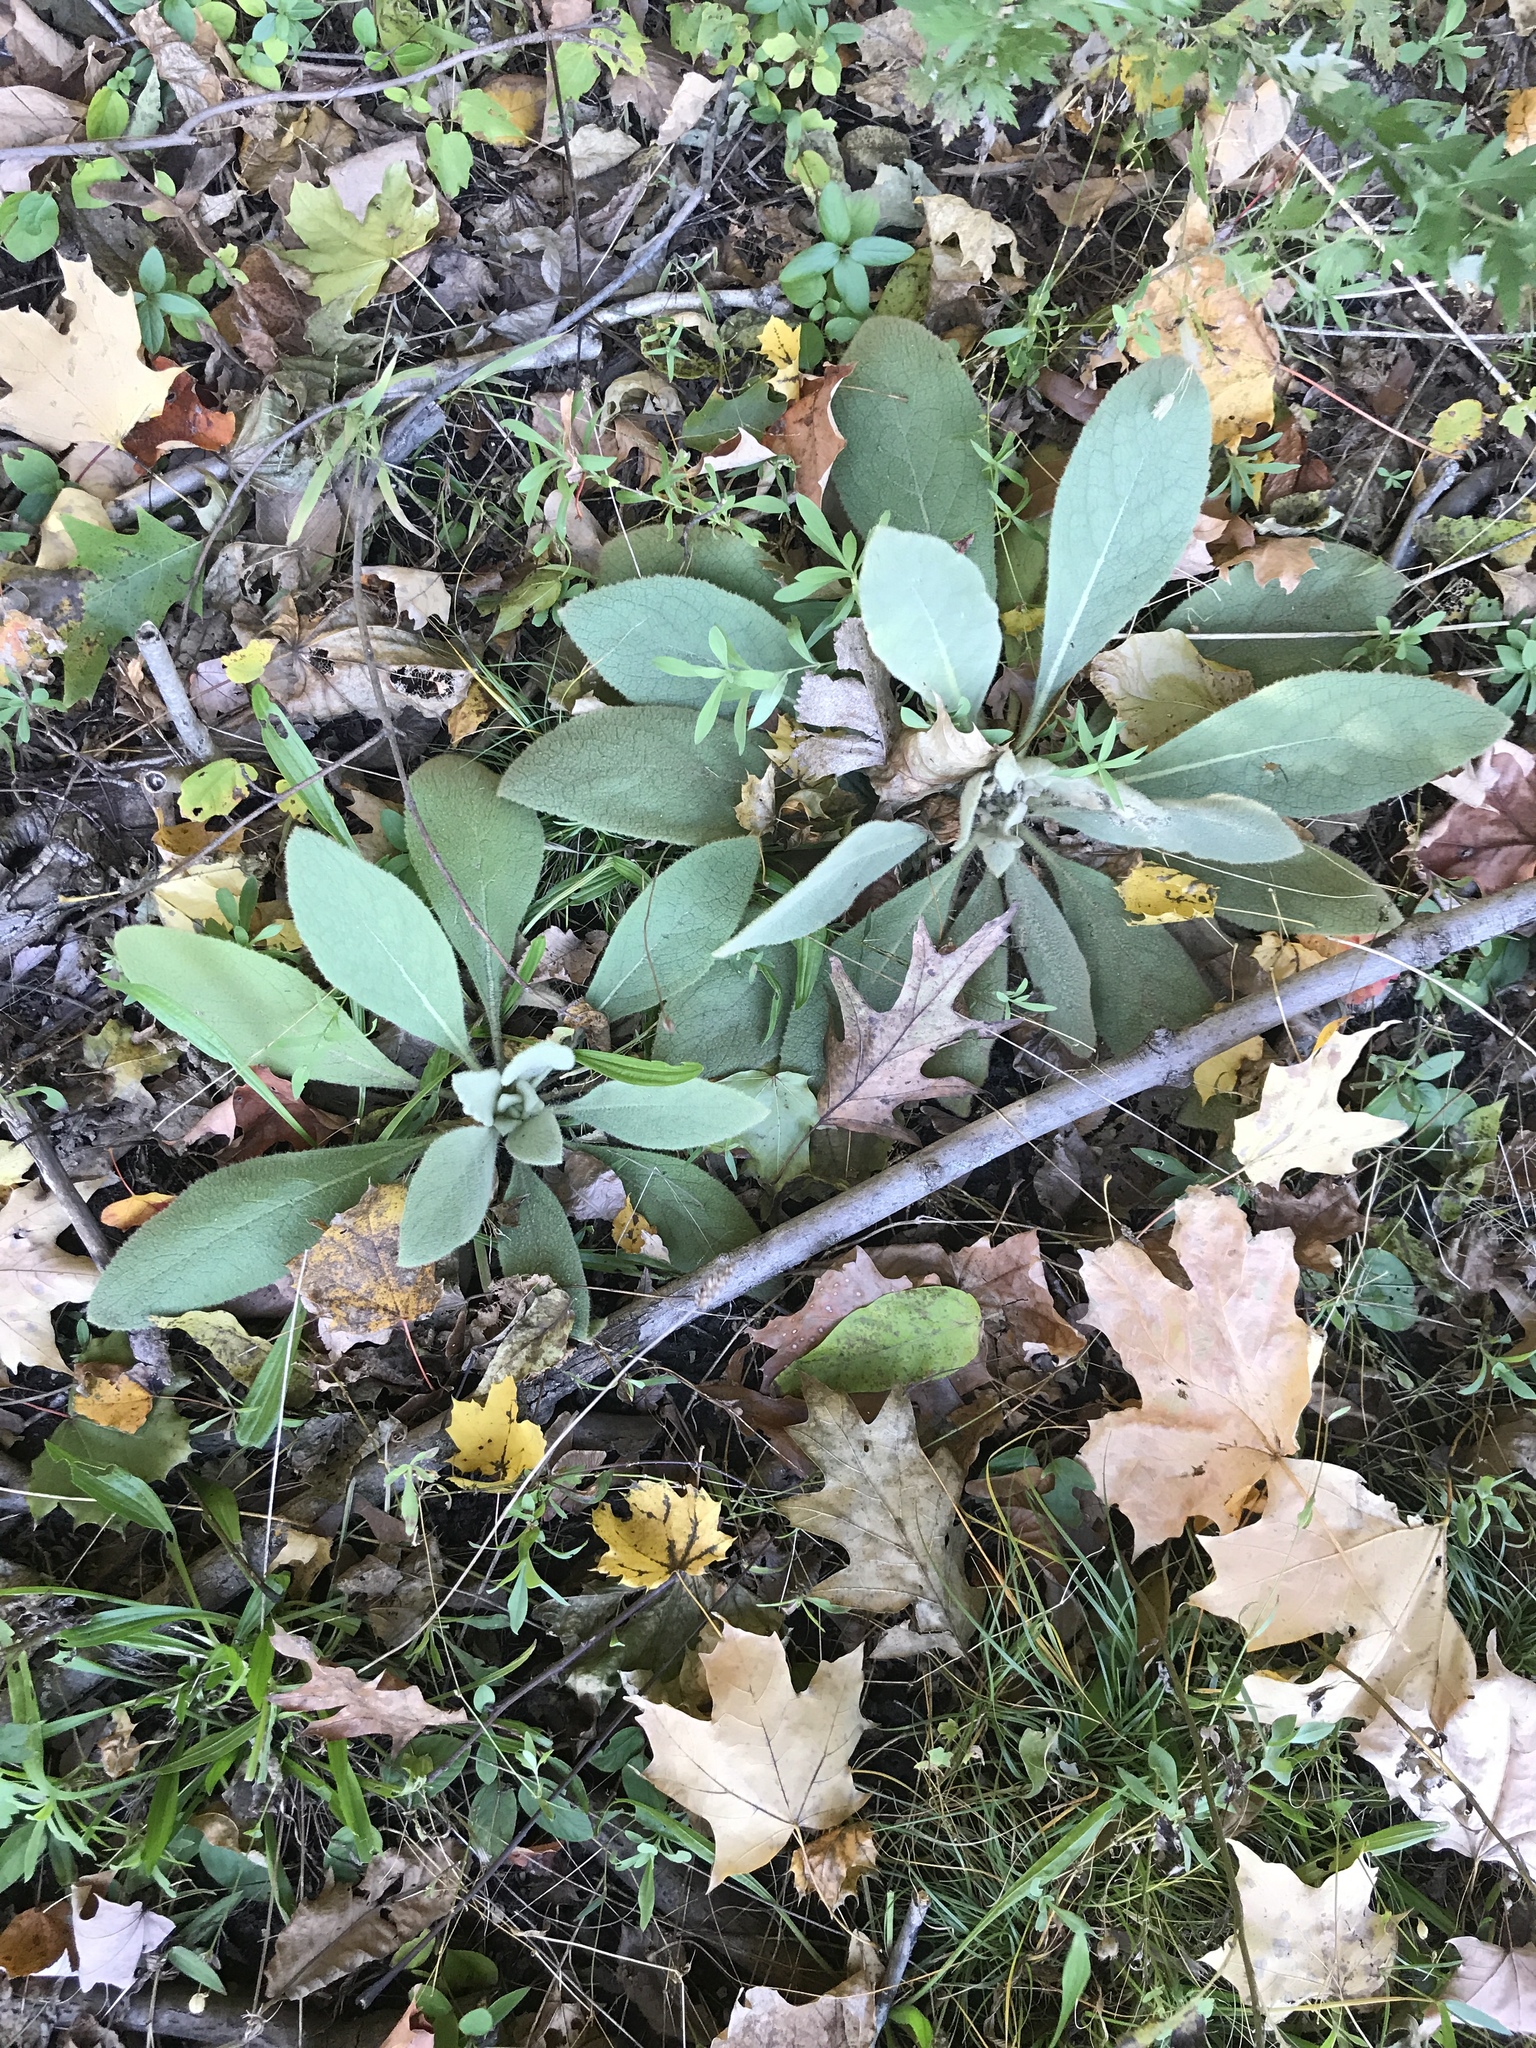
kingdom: Plantae
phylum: Tracheophyta
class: Magnoliopsida
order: Lamiales
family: Scrophulariaceae
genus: Verbascum
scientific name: Verbascum thapsus
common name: Common mullein
